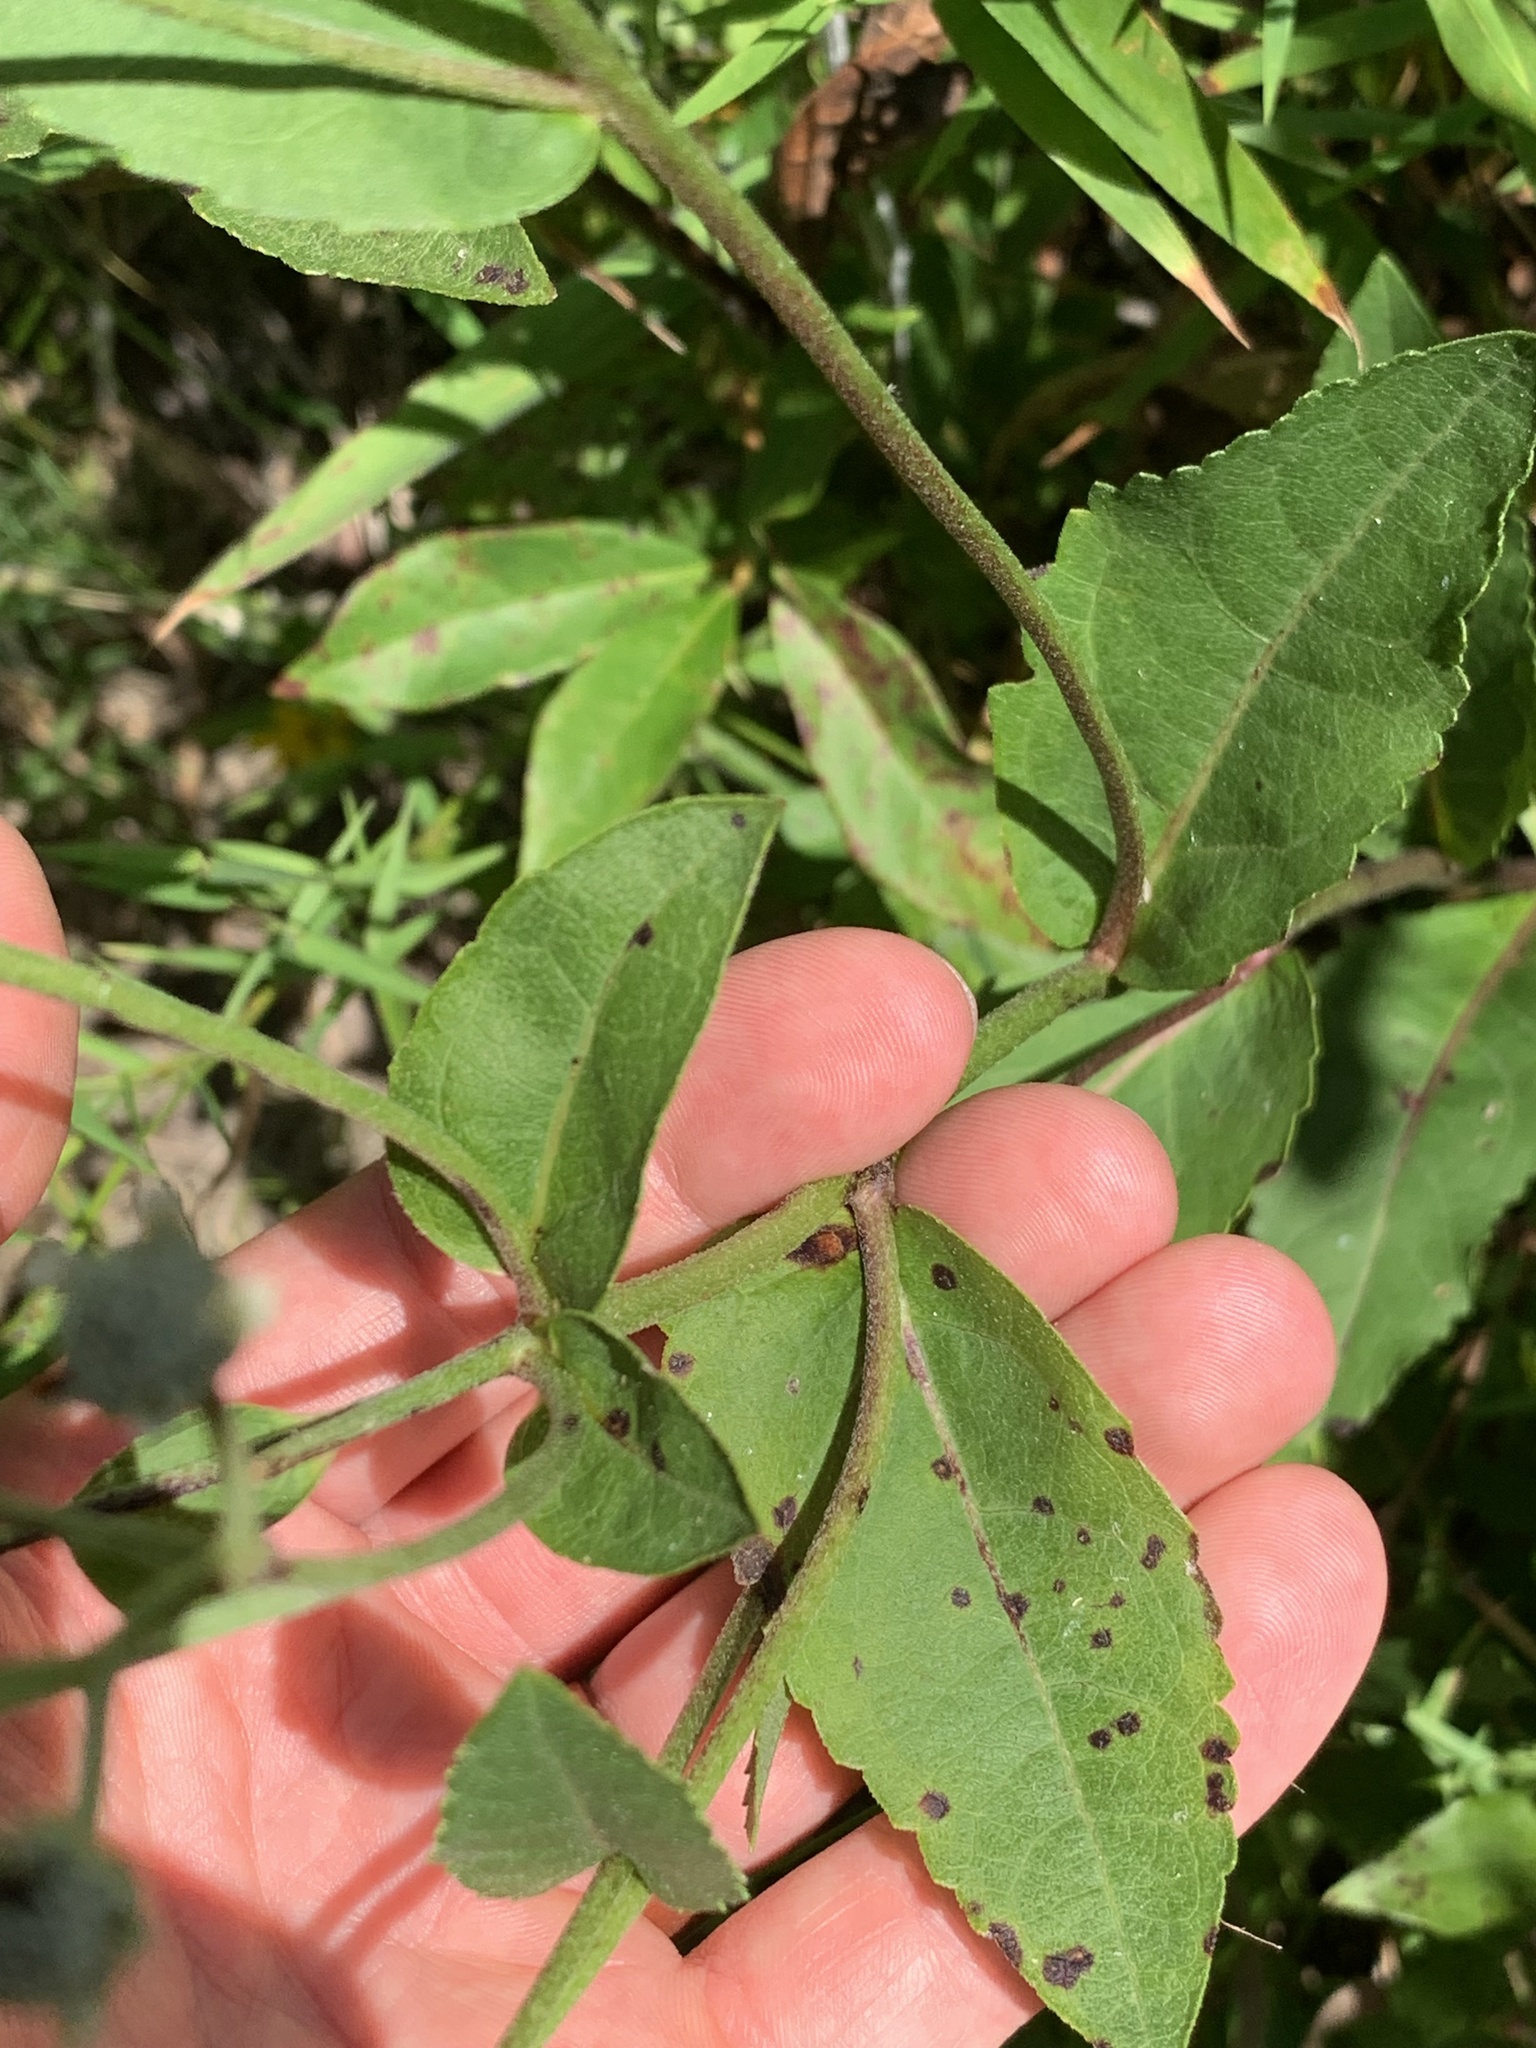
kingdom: Plantae
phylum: Tracheophyta
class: Magnoliopsida
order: Asterales
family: Asteraceae
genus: Parthenium
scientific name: Parthenium integrifolium
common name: American feverfew
